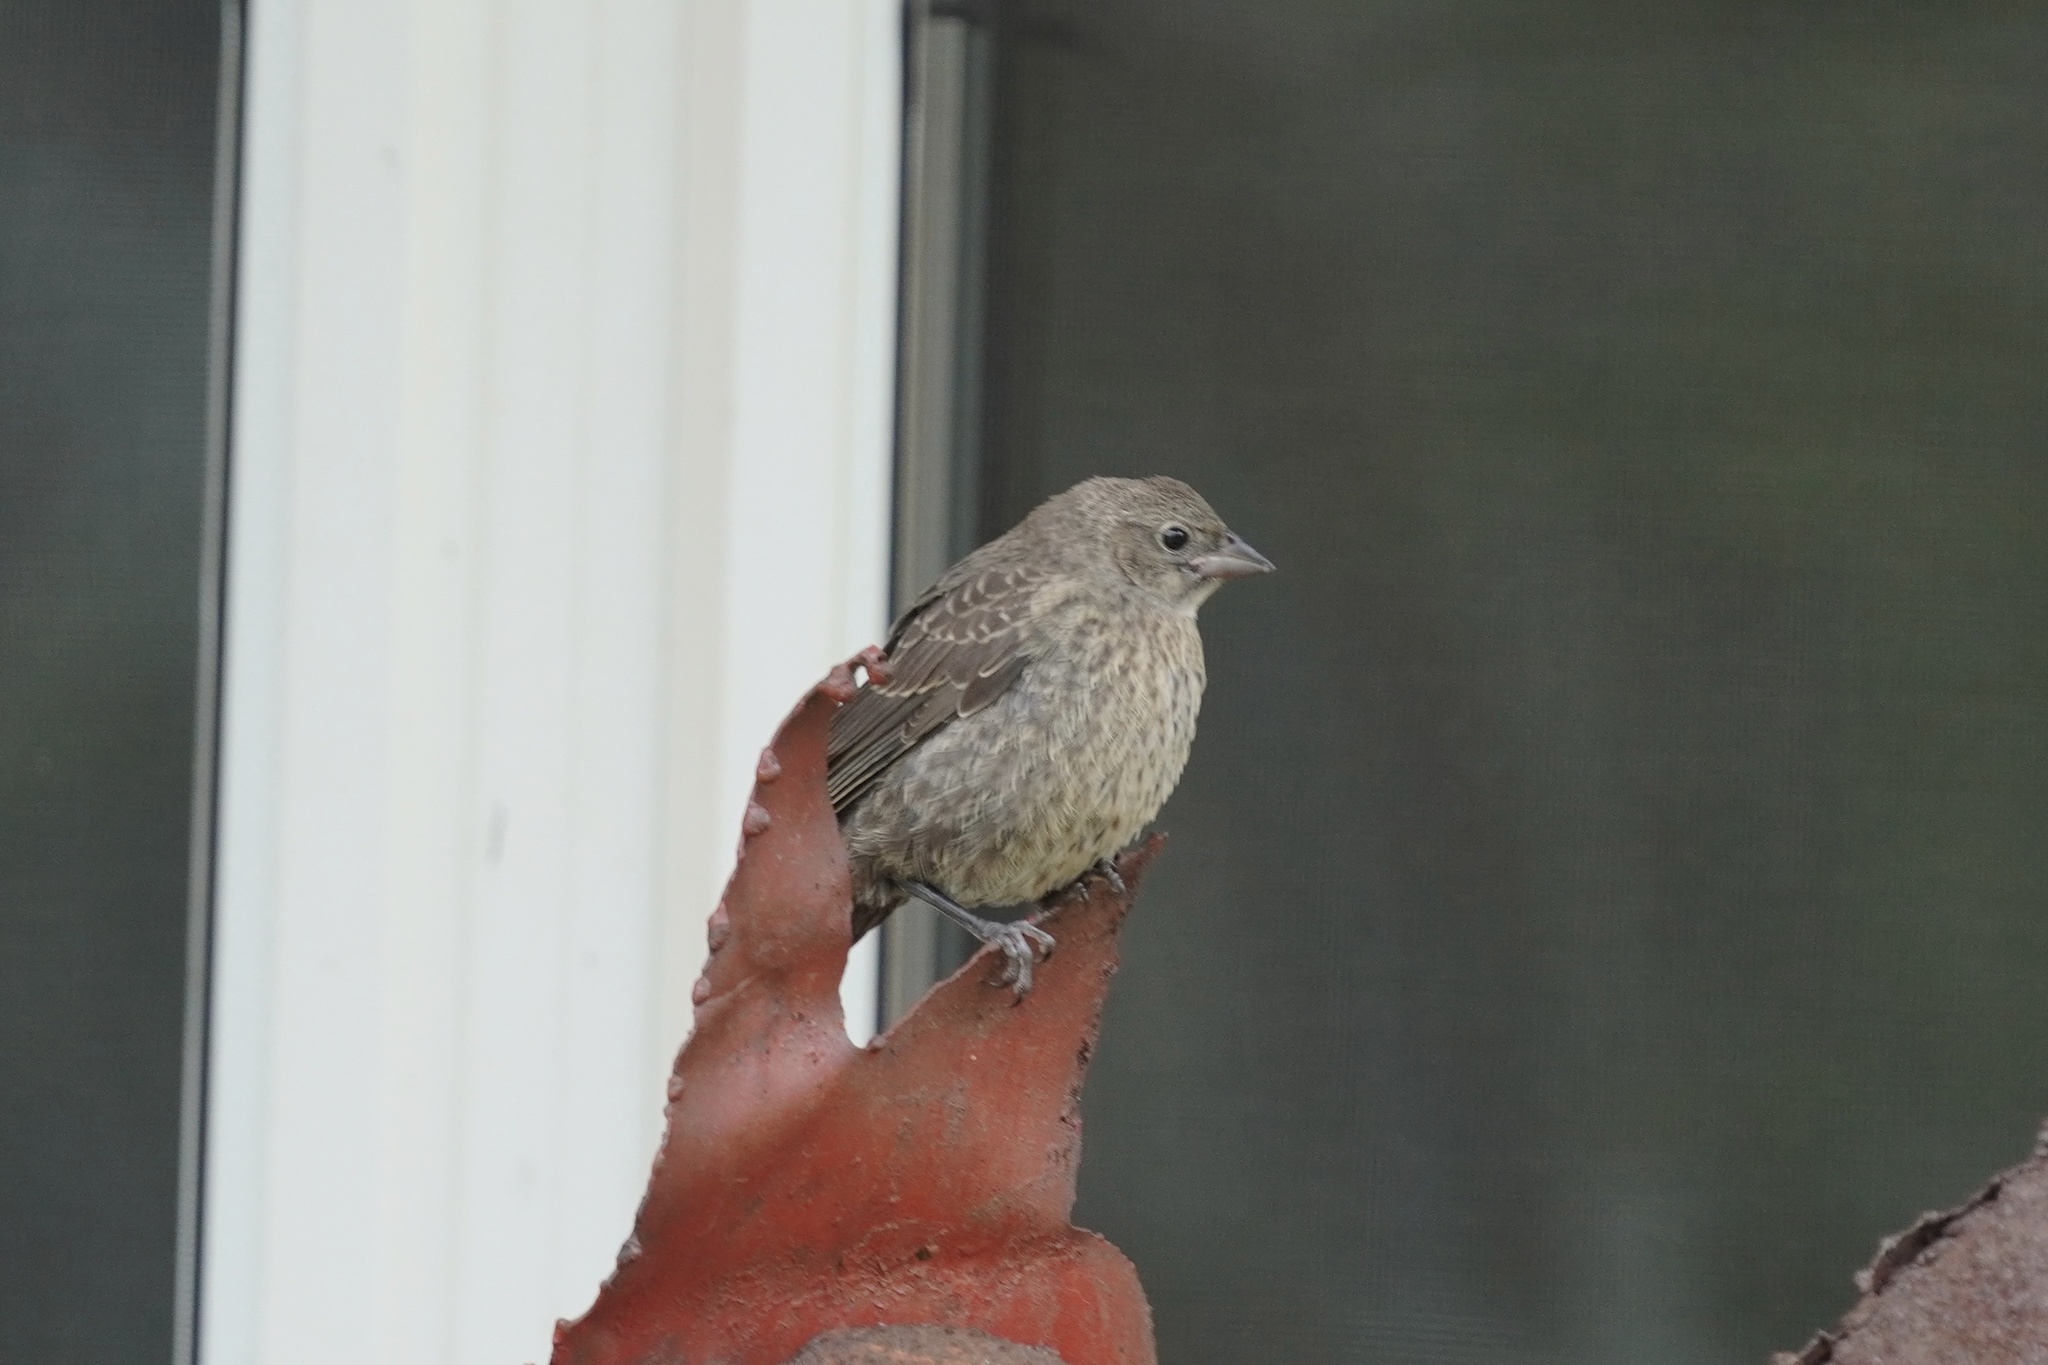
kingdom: Animalia
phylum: Chordata
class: Aves
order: Passeriformes
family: Fringillidae
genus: Haemorhous
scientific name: Haemorhous mexicanus
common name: House finch
